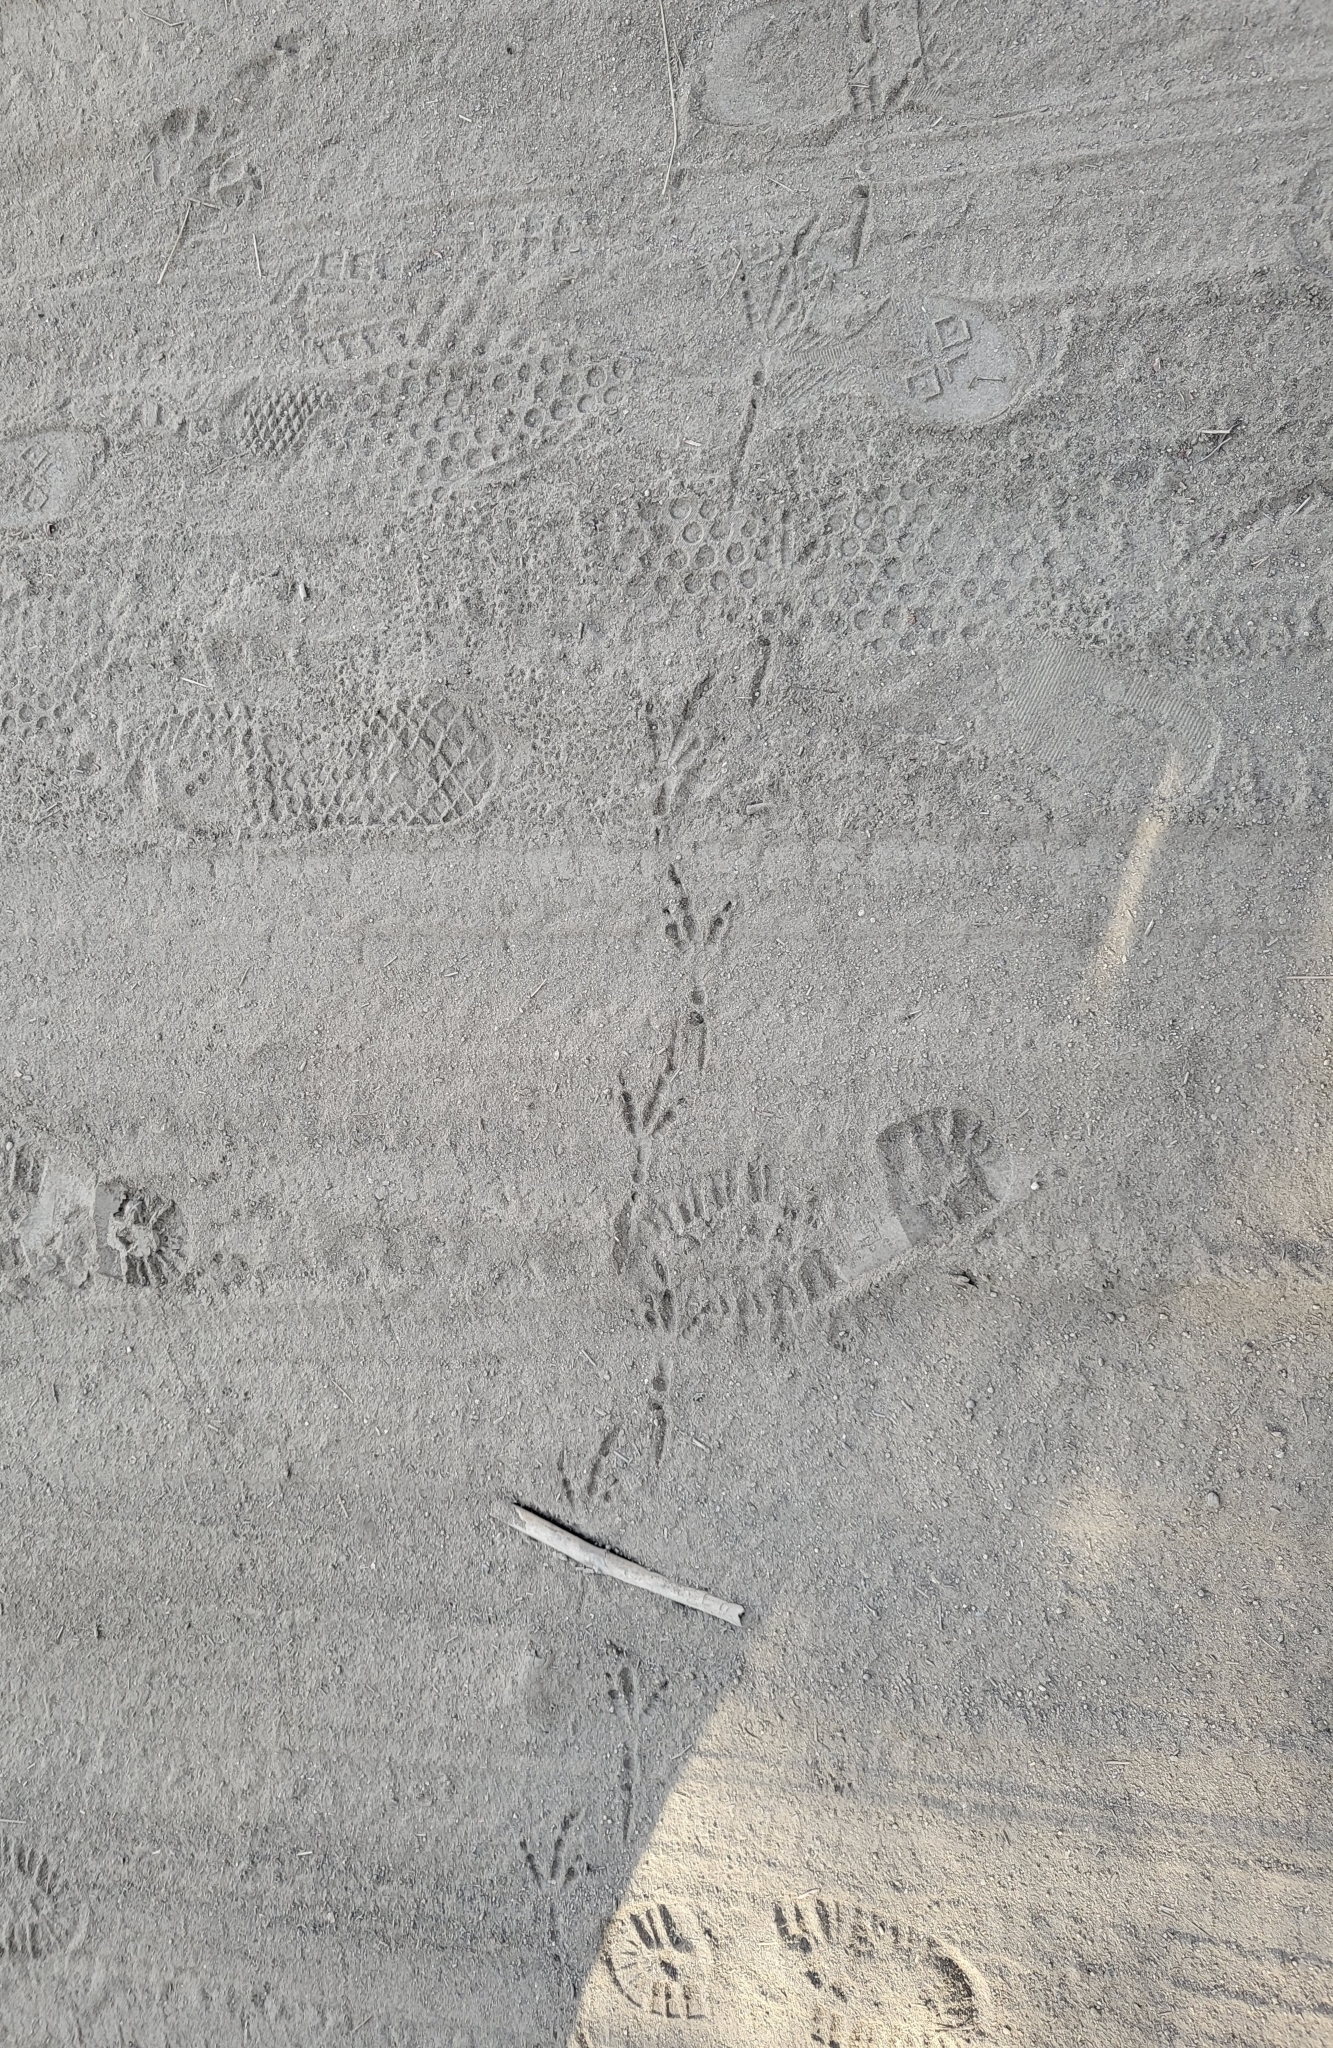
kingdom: Animalia
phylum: Chordata
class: Aves
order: Passeriformes
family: Corvidae
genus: Corvus
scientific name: Corvus corax
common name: Common raven
